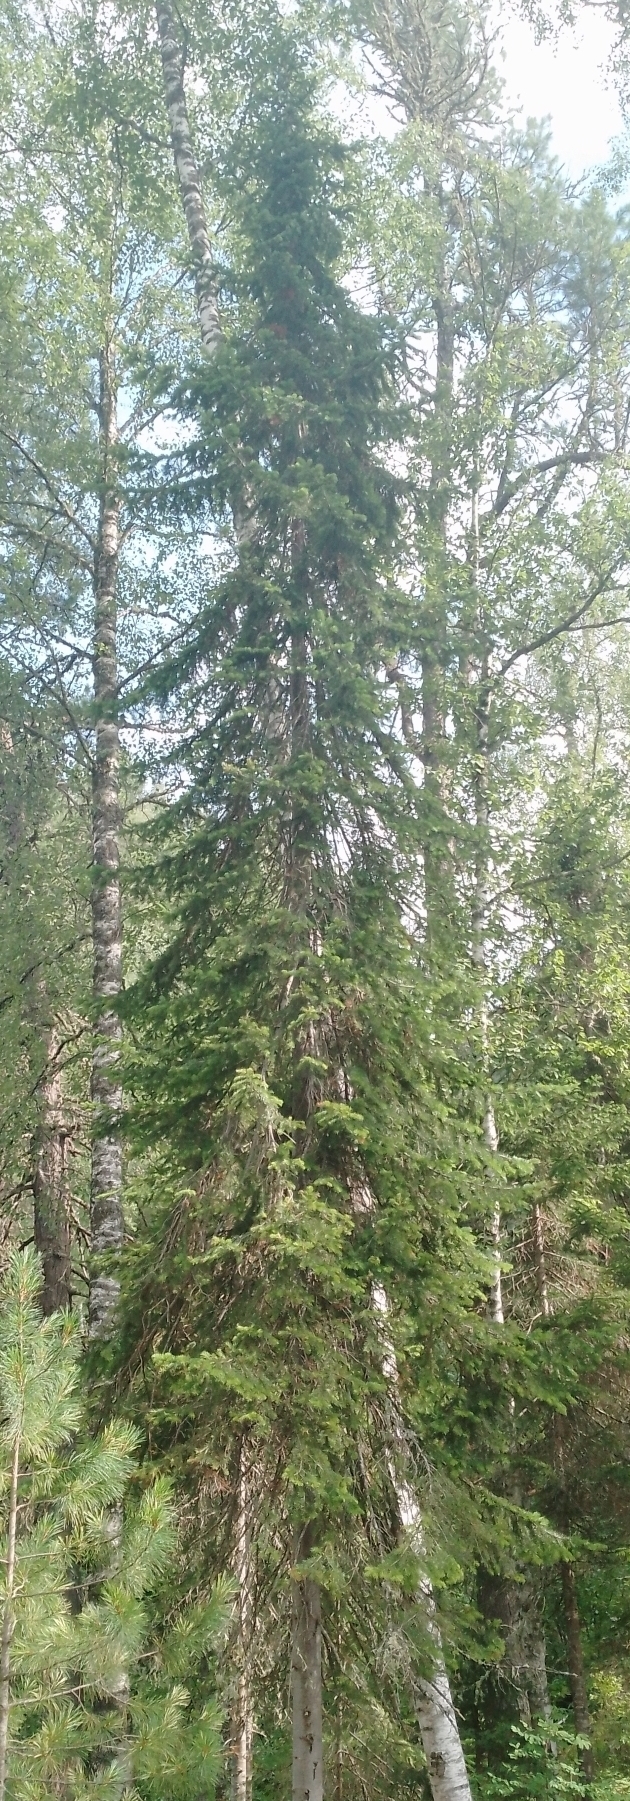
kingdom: Plantae
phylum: Tracheophyta
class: Pinopsida
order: Pinales
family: Pinaceae
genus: Abies
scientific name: Abies sibirica
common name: Siberian fir
